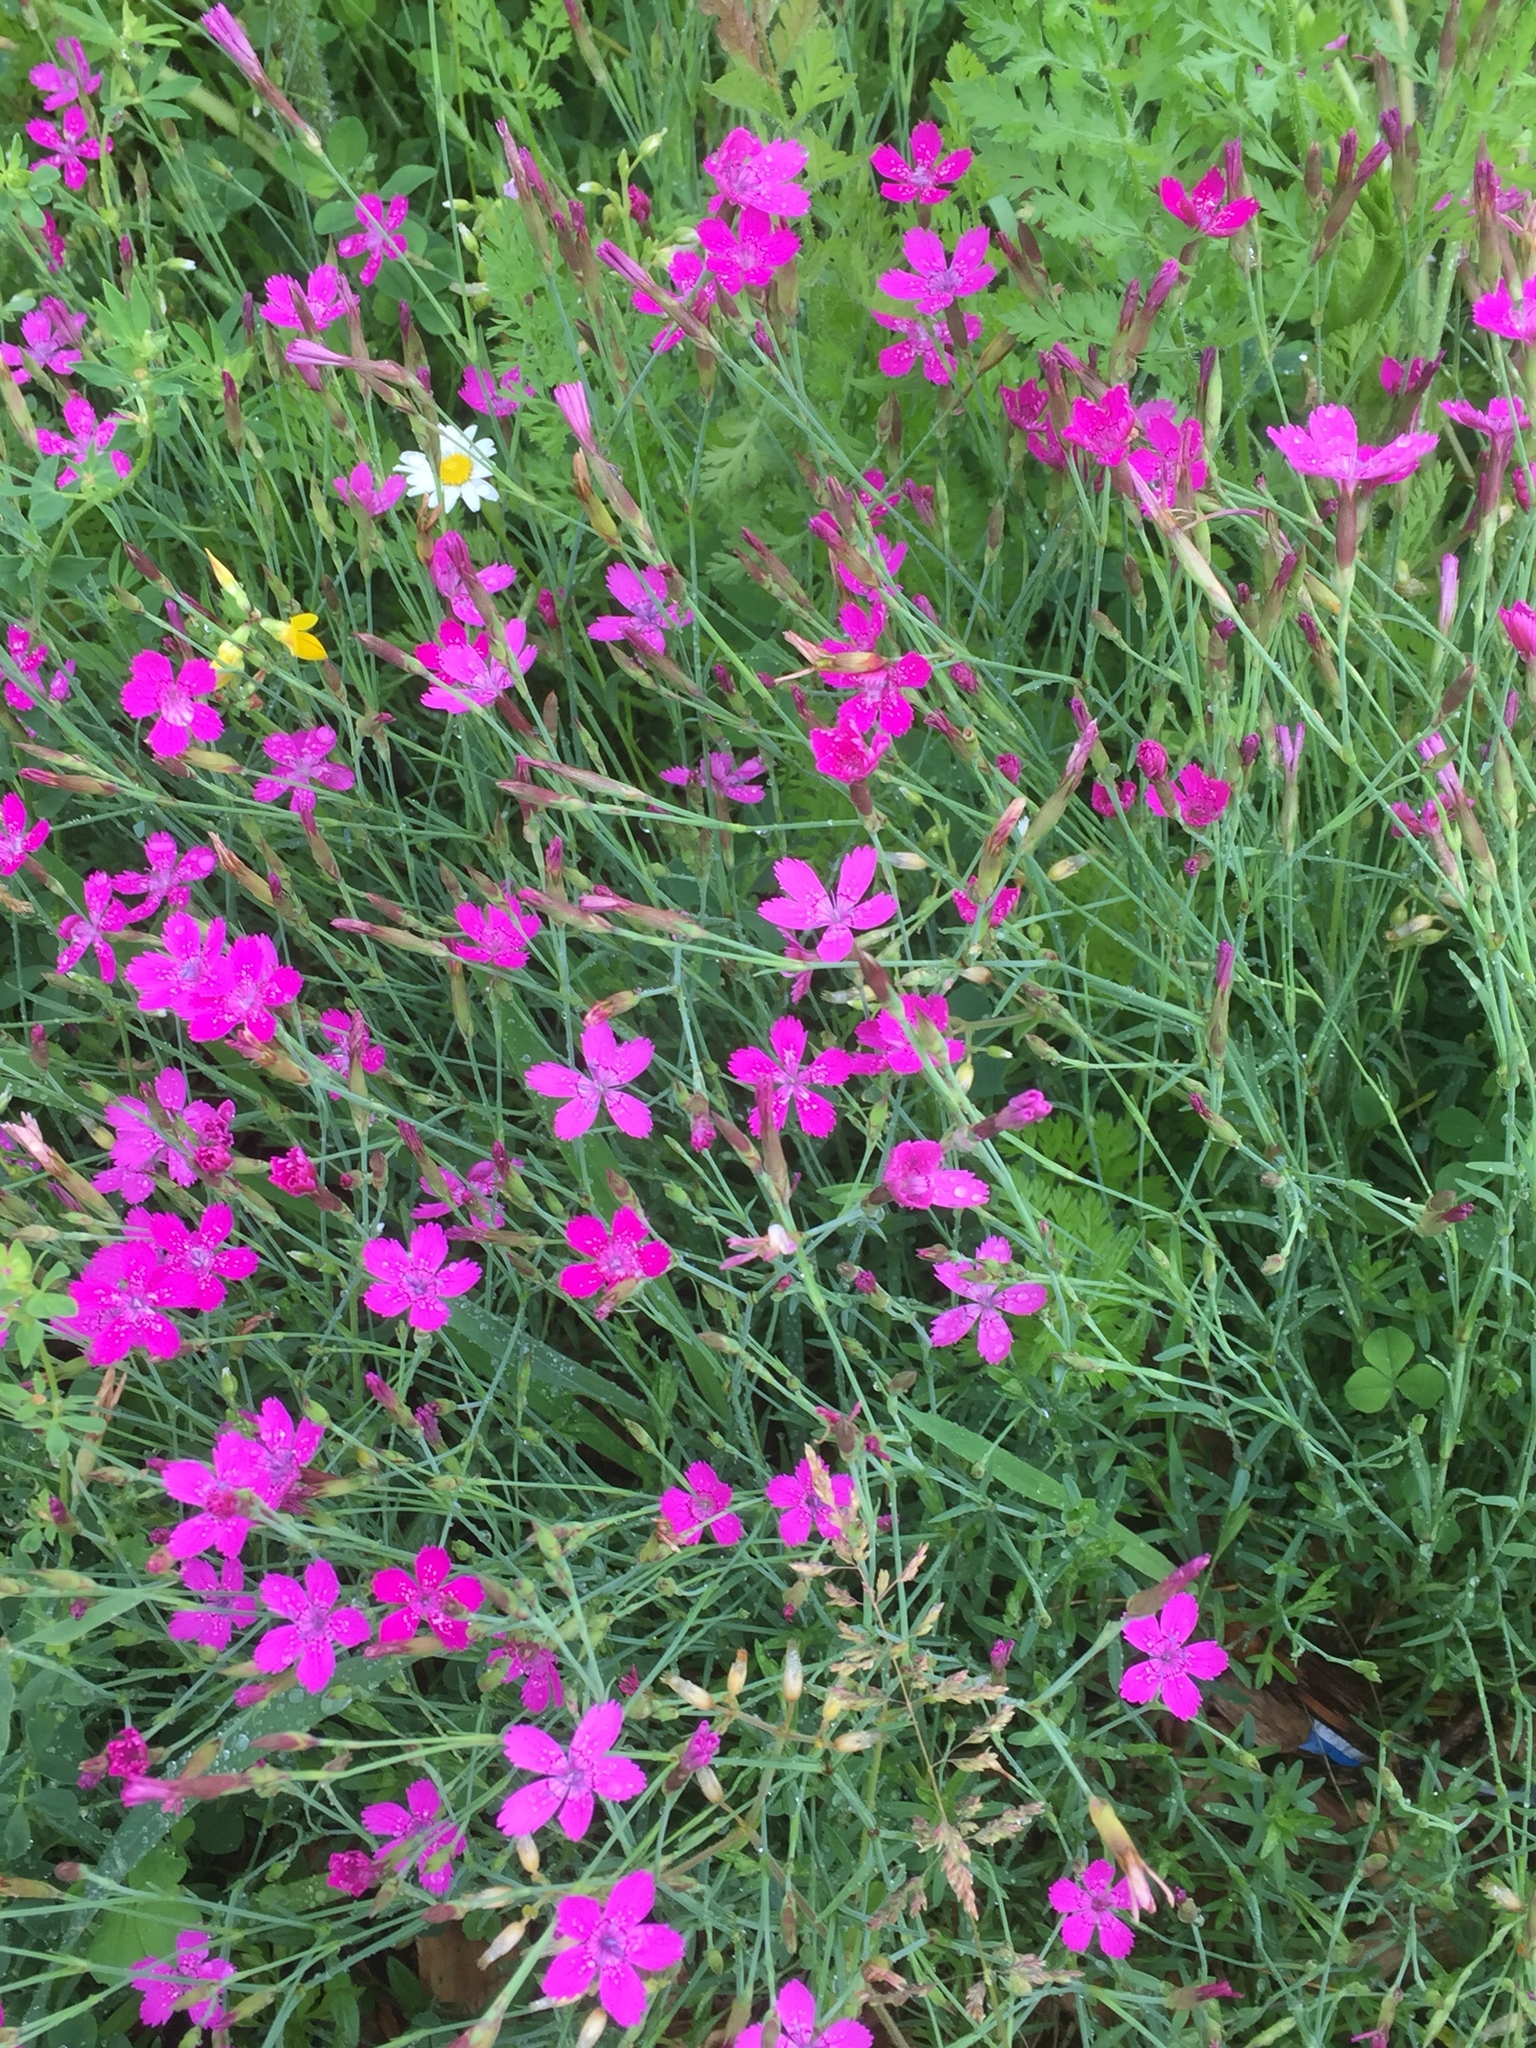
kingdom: Plantae
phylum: Tracheophyta
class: Magnoliopsida
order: Caryophyllales
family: Caryophyllaceae
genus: Dianthus
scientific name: Dianthus deltoides
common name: Maiden pink
